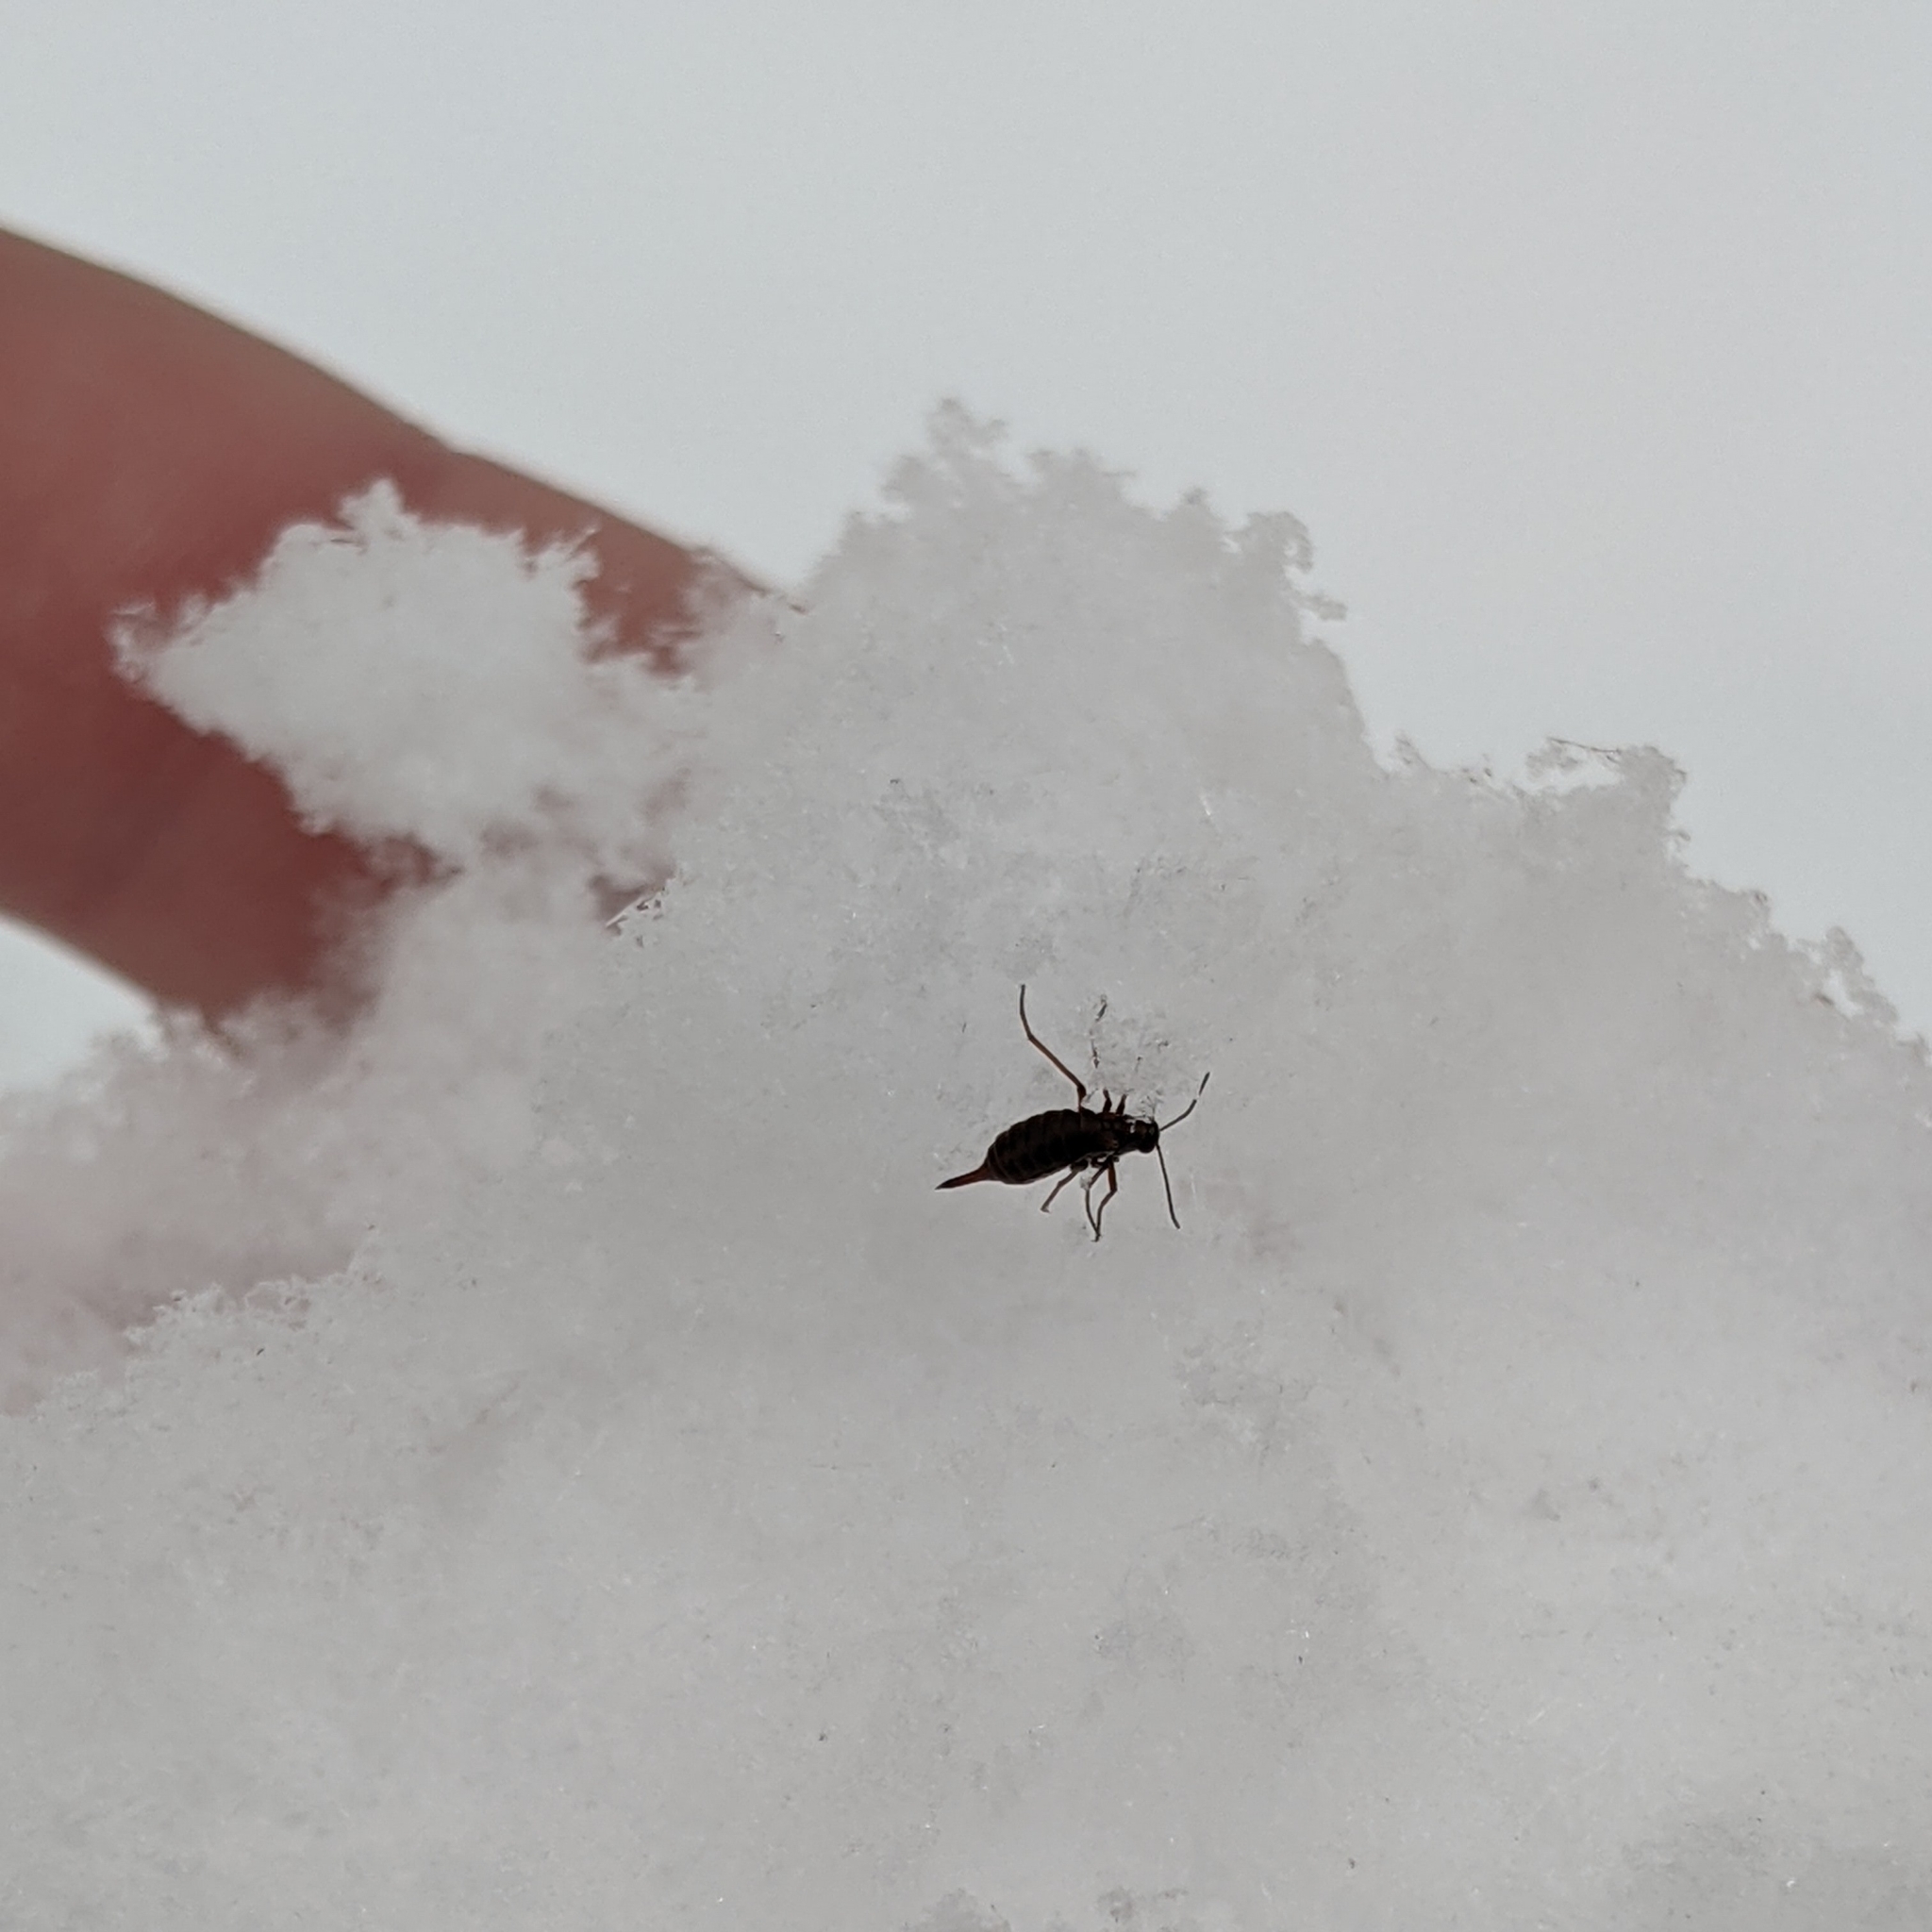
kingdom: Animalia
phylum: Arthropoda
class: Insecta
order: Mecoptera
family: Boreidae
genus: Boreus
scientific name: Boreus nivoriundus
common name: Snow-born boreus
